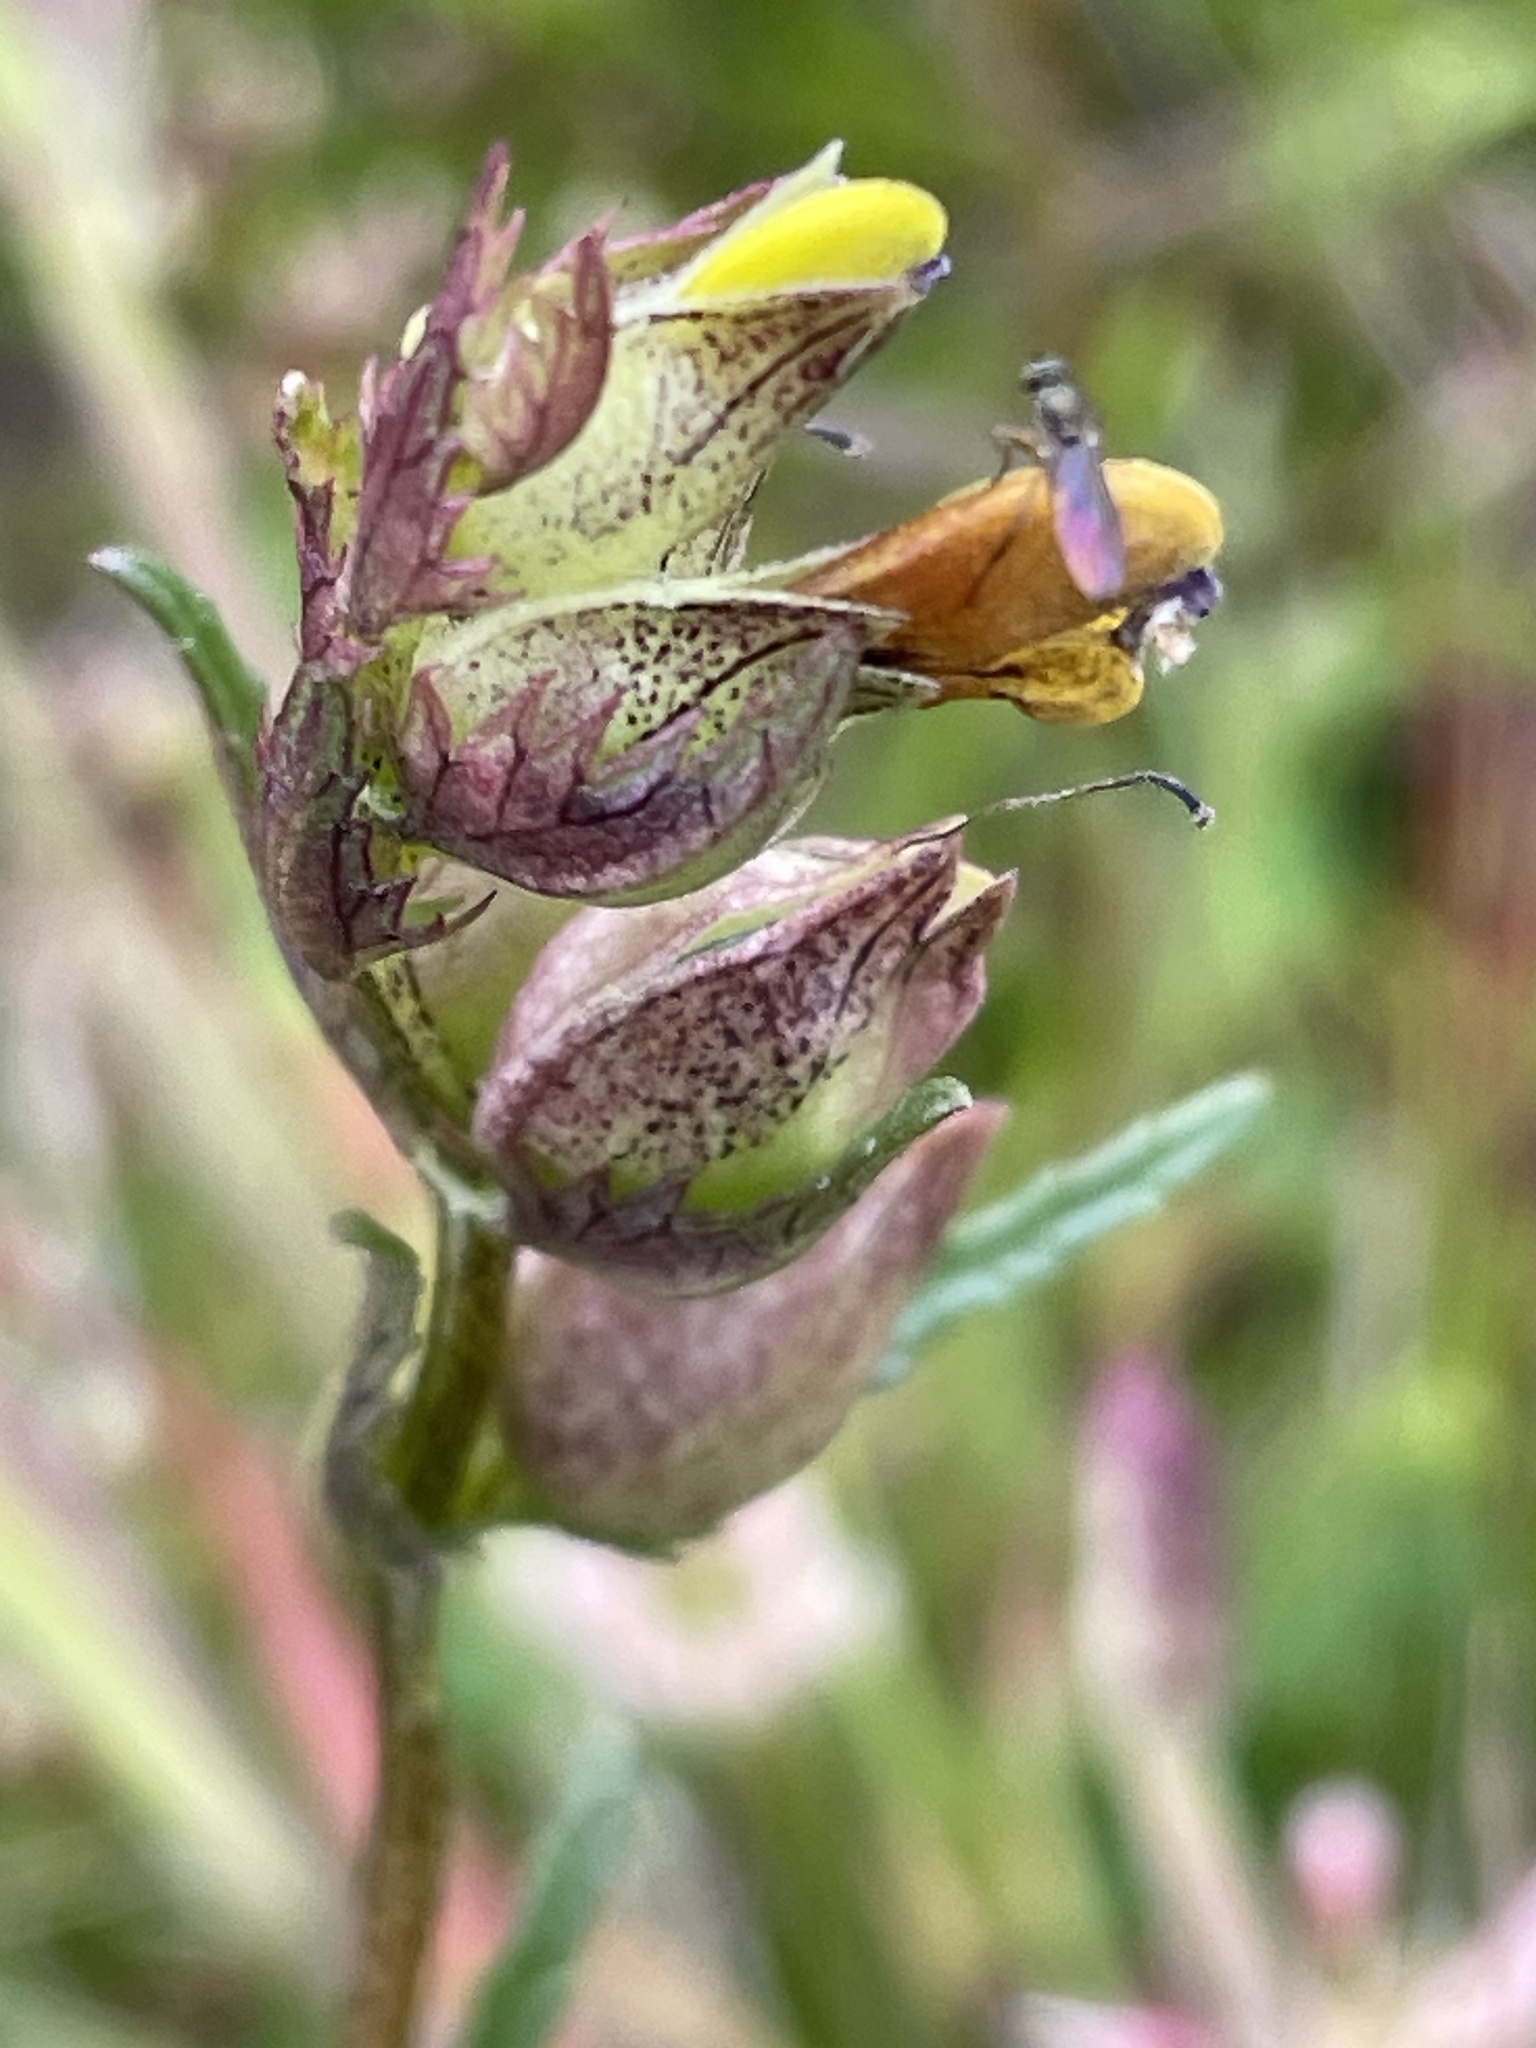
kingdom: Plantae
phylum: Tracheophyta
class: Magnoliopsida
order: Lamiales
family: Orobanchaceae
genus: Rhinanthus
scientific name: Rhinanthus minor
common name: Yellow-rattle
